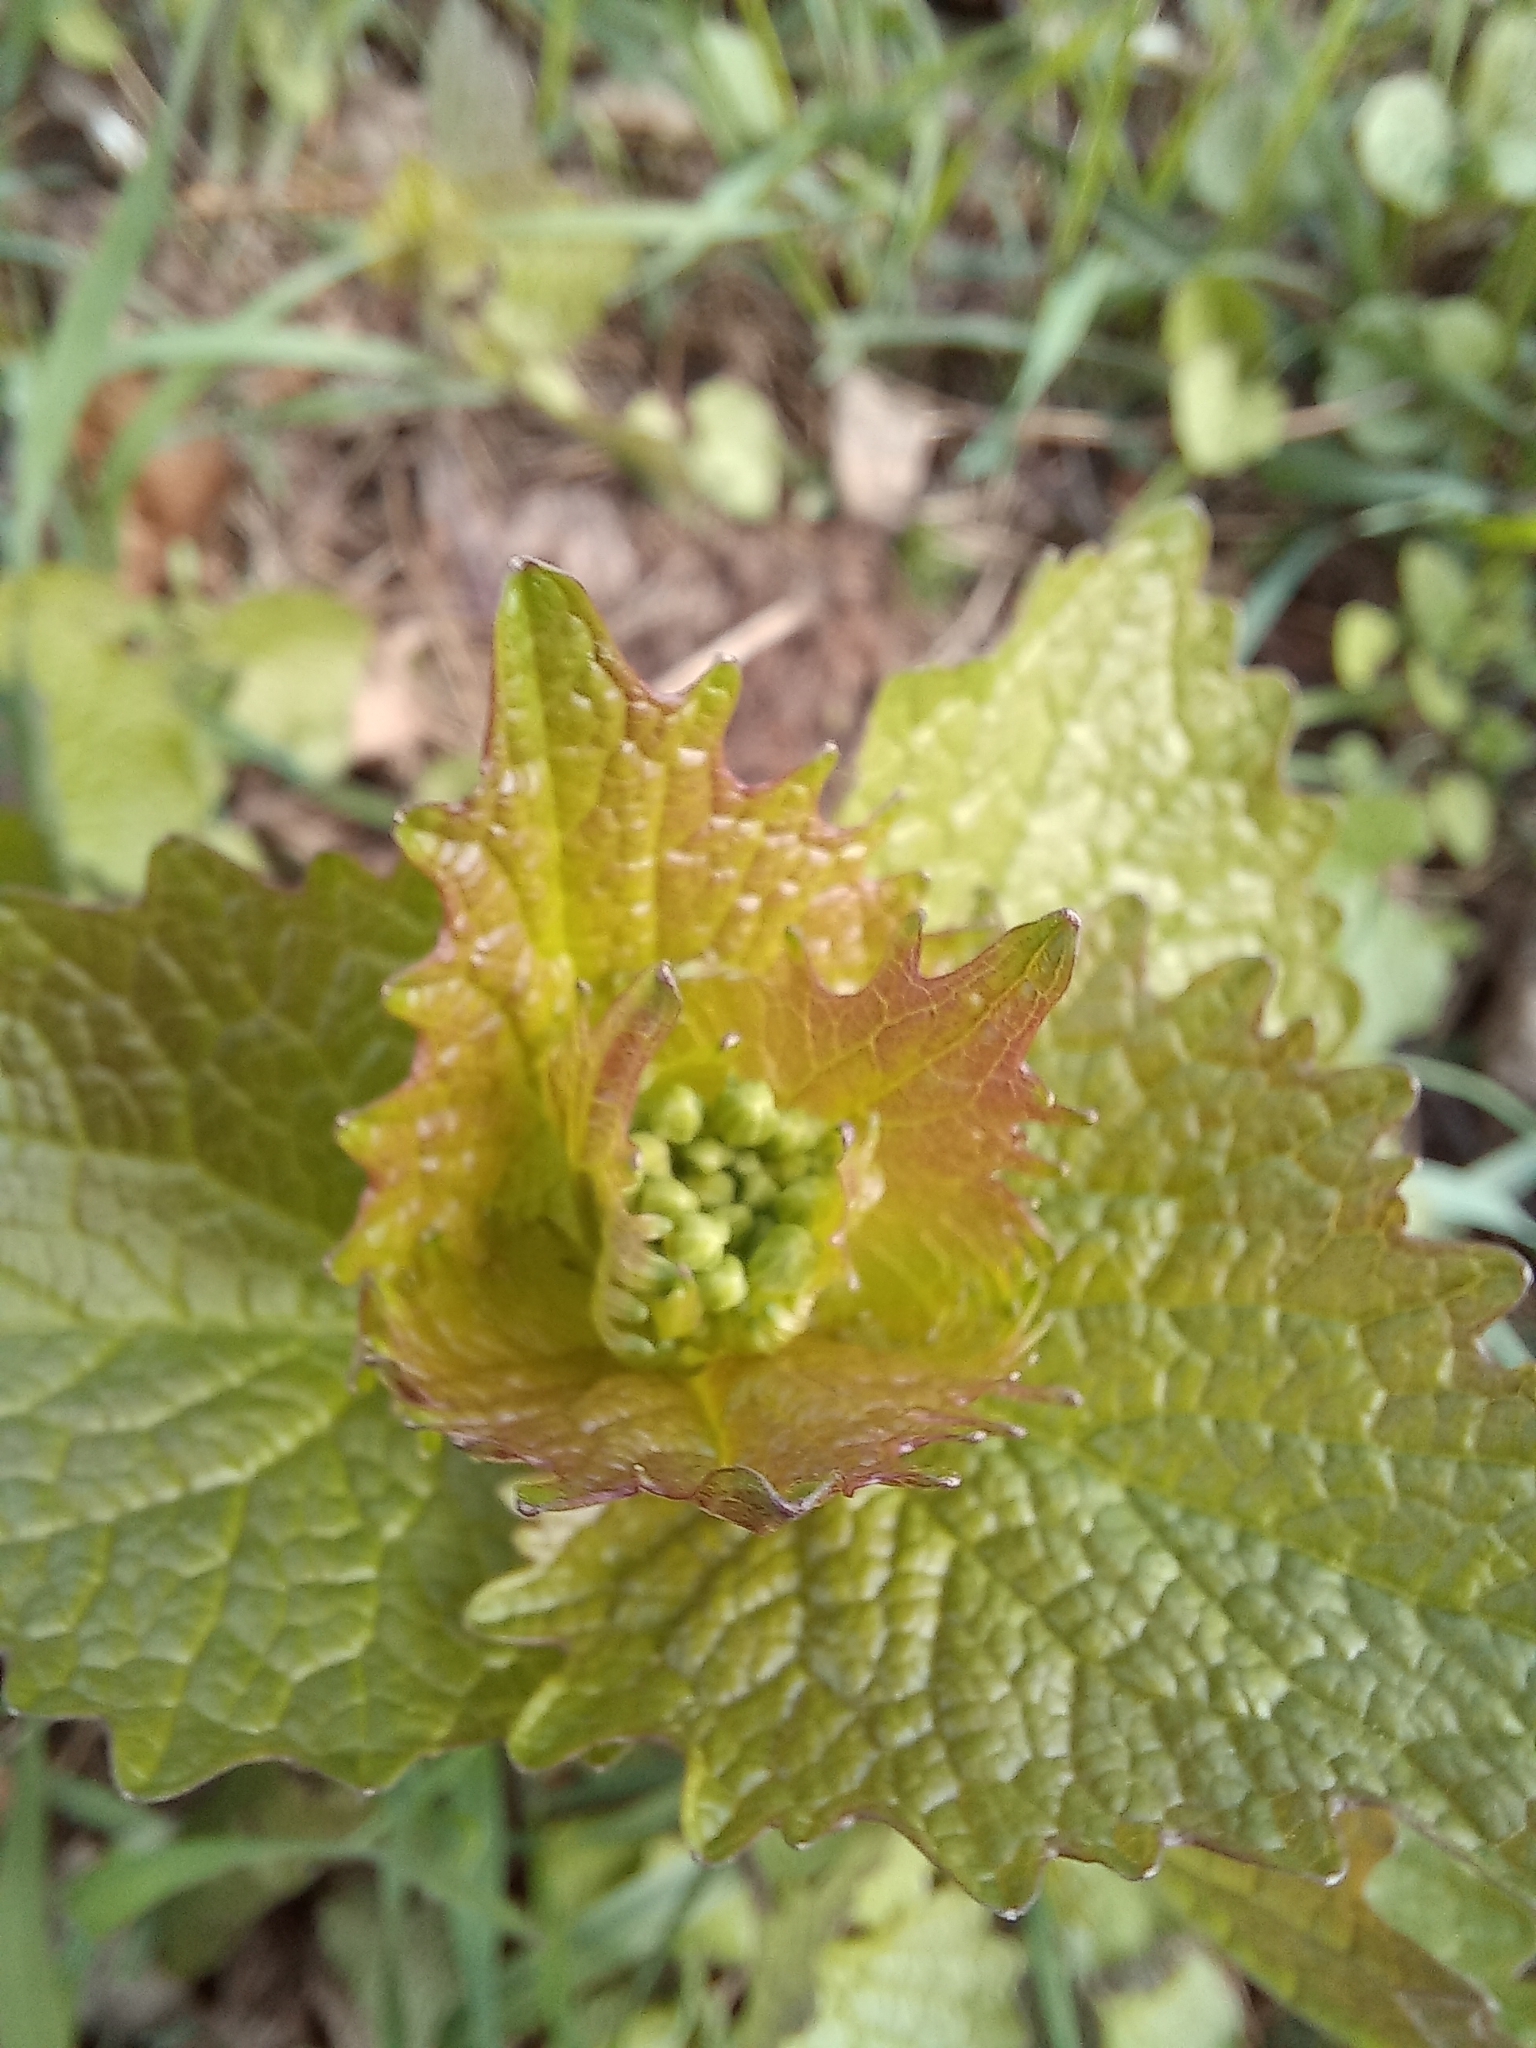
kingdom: Plantae
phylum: Tracheophyta
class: Magnoliopsida
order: Brassicales
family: Brassicaceae
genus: Alliaria
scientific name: Alliaria petiolata
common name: Garlic mustard
